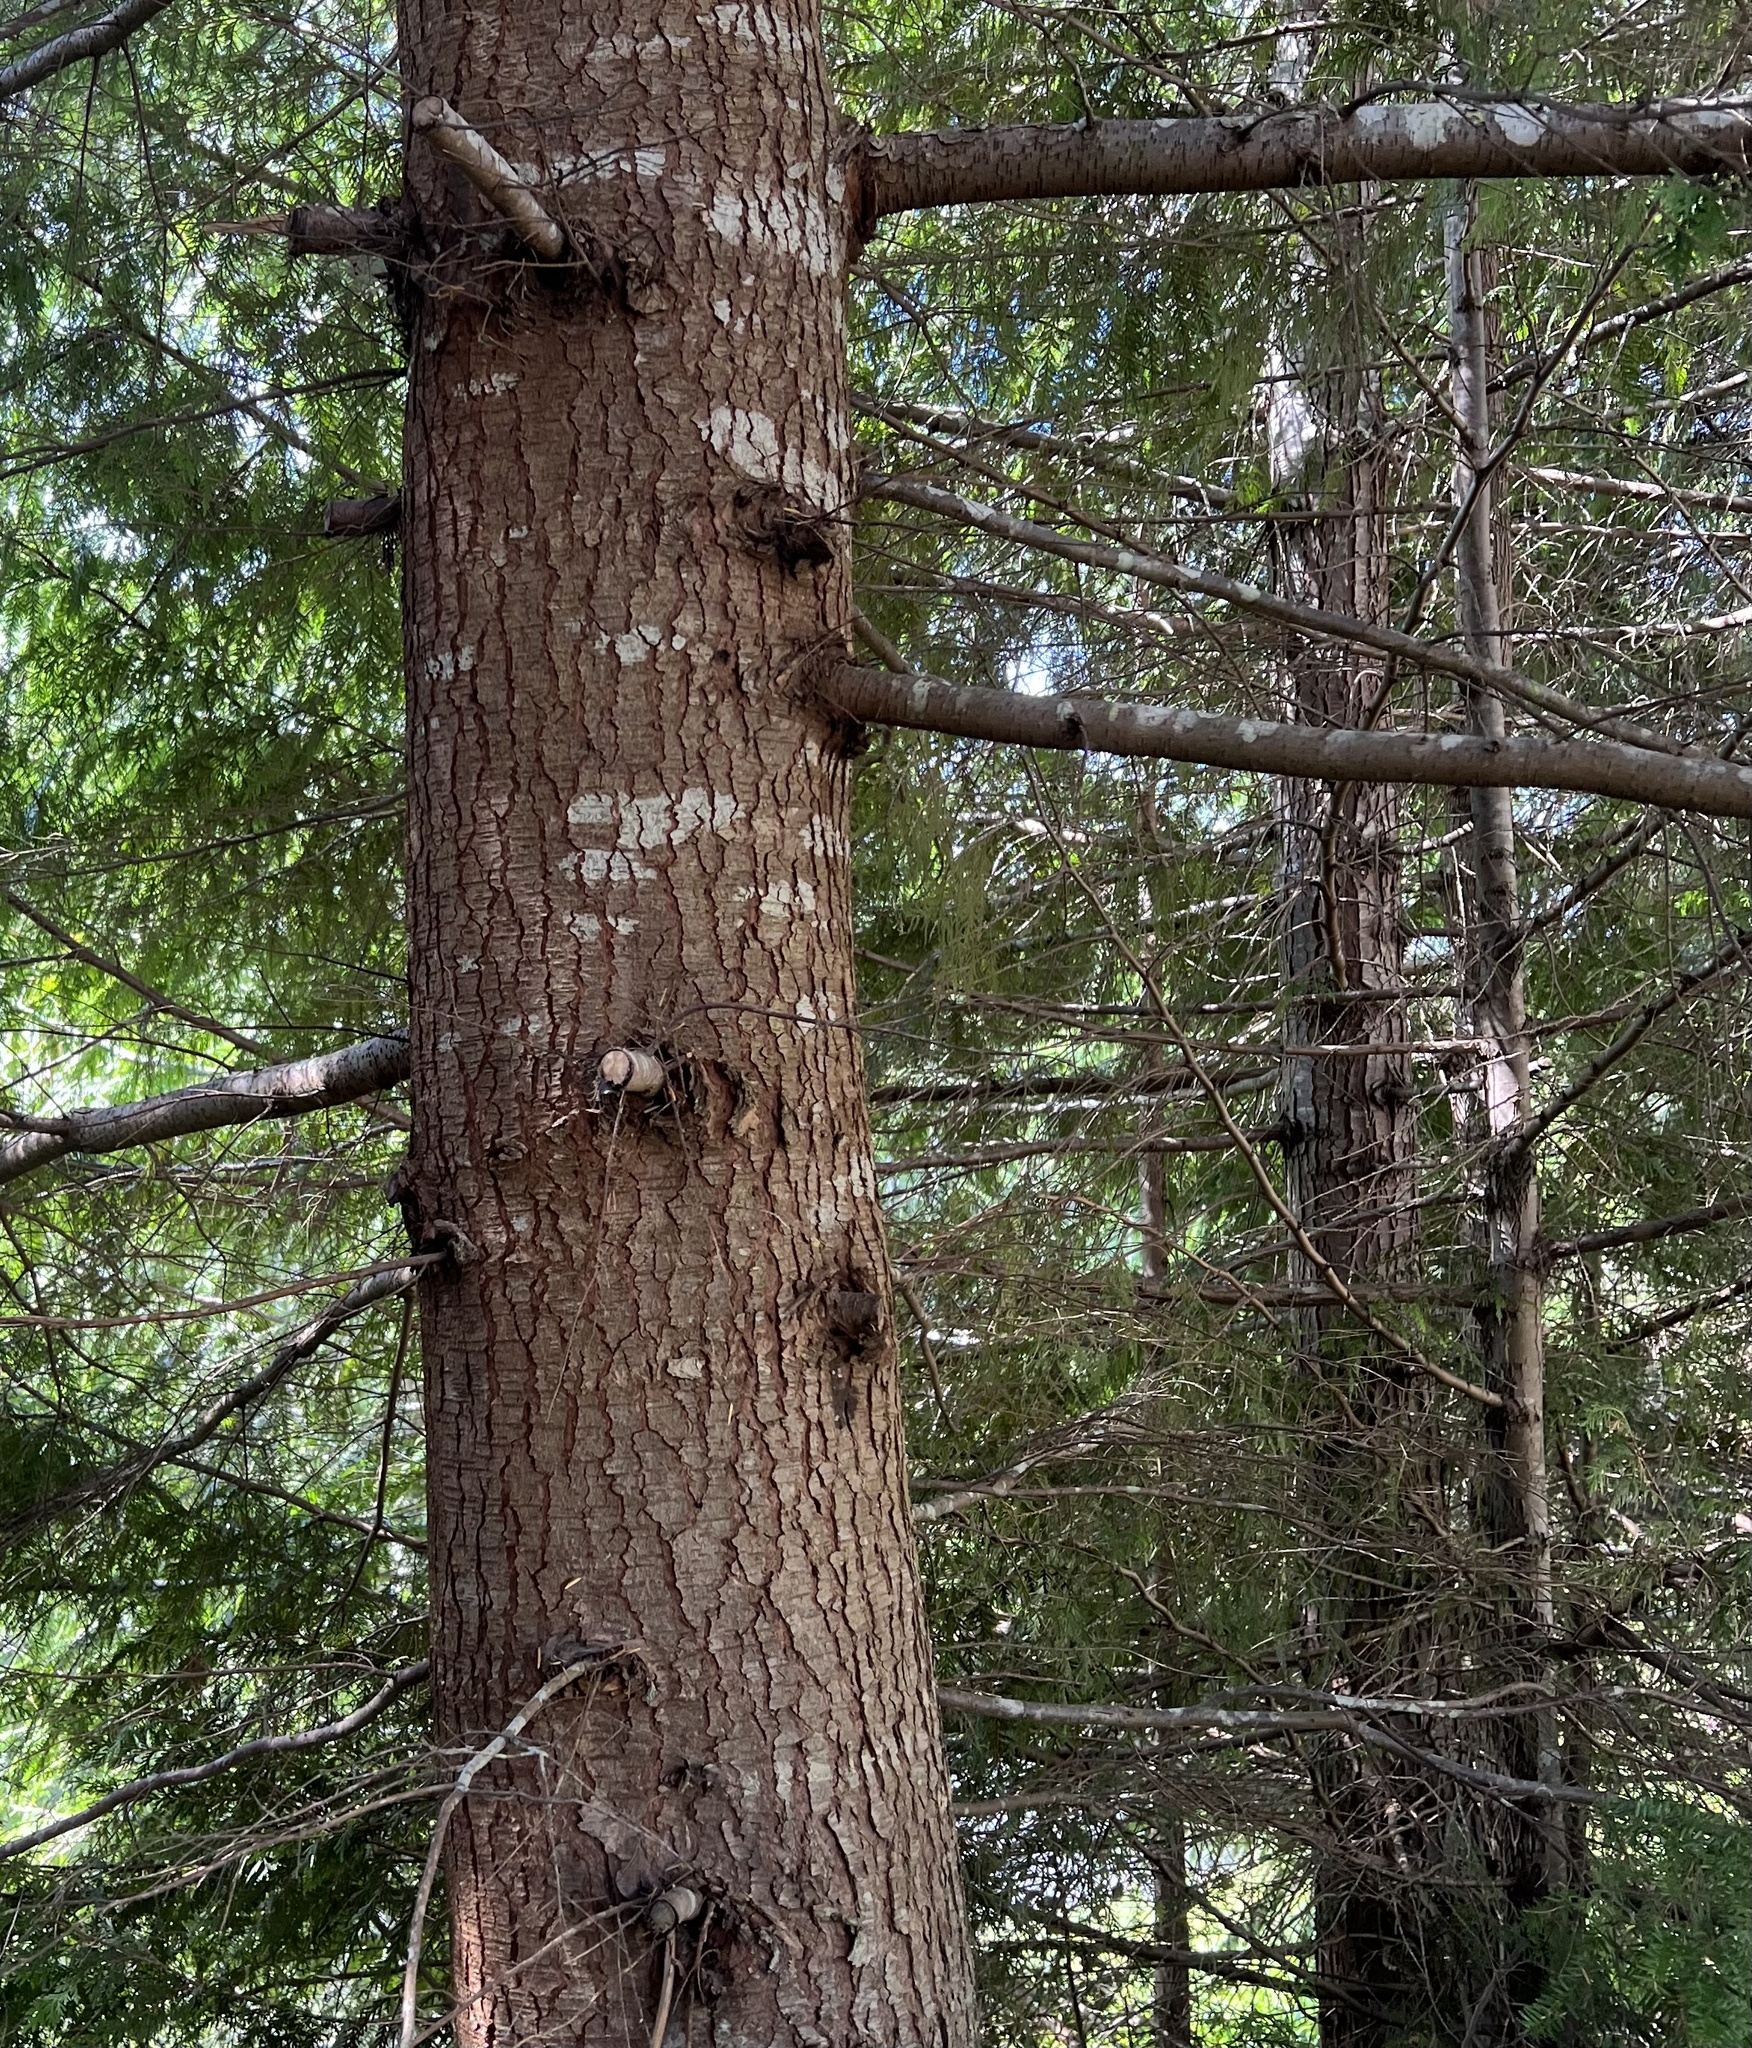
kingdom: Plantae
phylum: Tracheophyta
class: Pinopsida
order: Pinales
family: Pinaceae
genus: Tsuga
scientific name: Tsuga heterophylla
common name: Western hemlock
